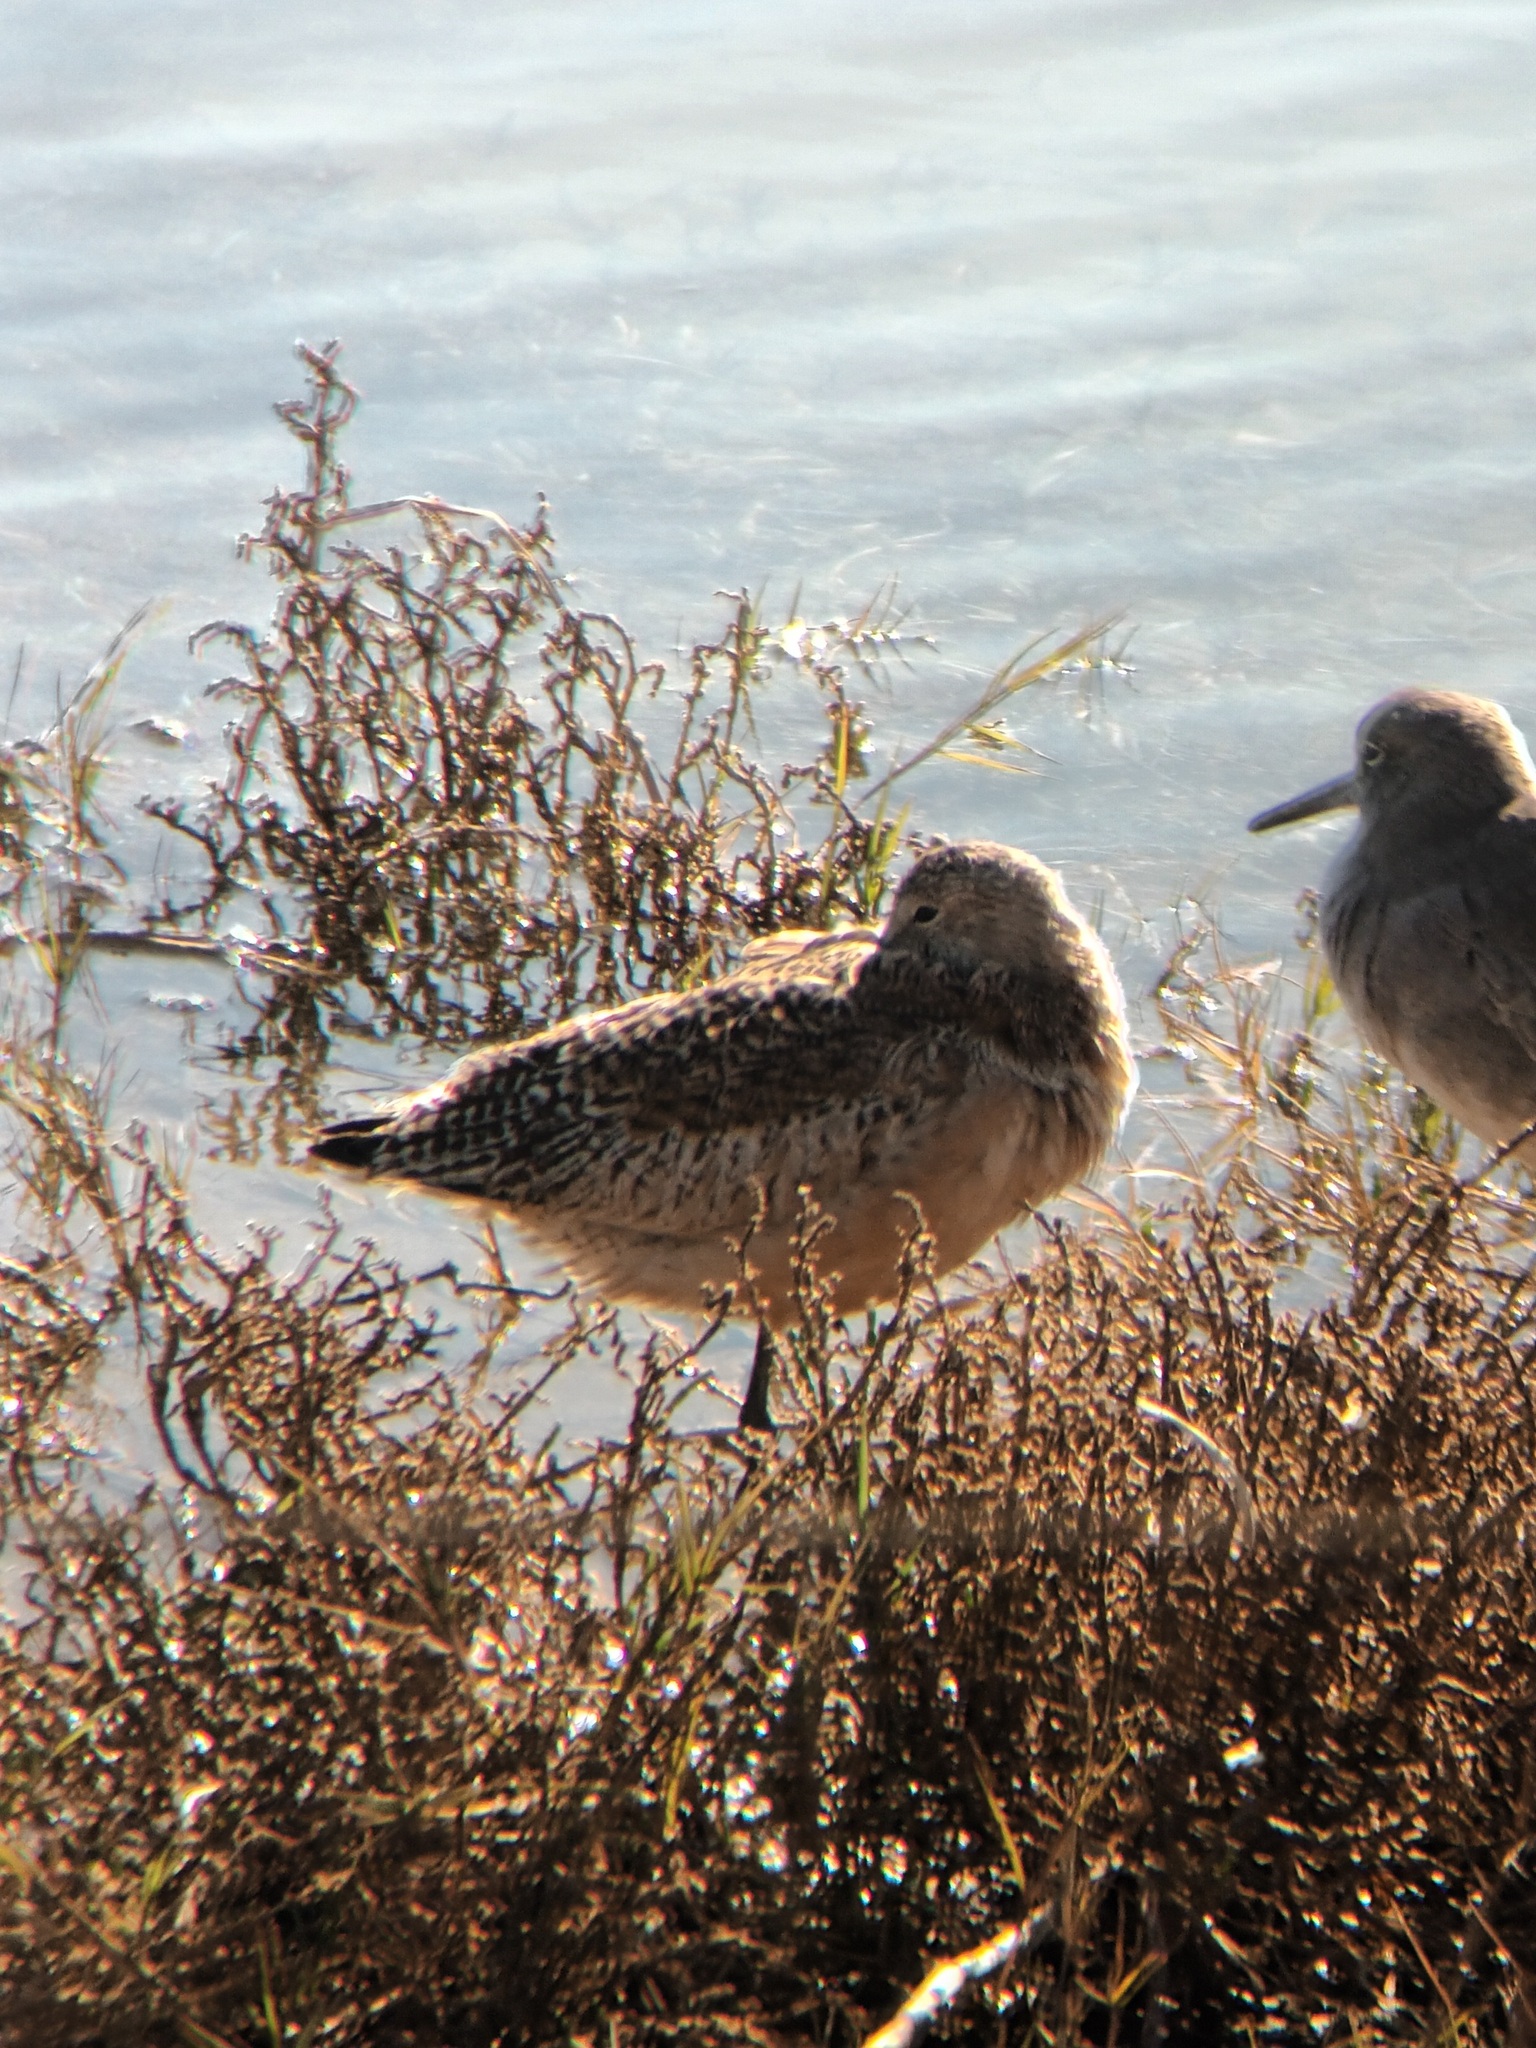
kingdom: Animalia
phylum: Chordata
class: Aves
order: Charadriiformes
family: Scolopacidae
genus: Limosa
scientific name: Limosa fedoa
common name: Marbled godwit
